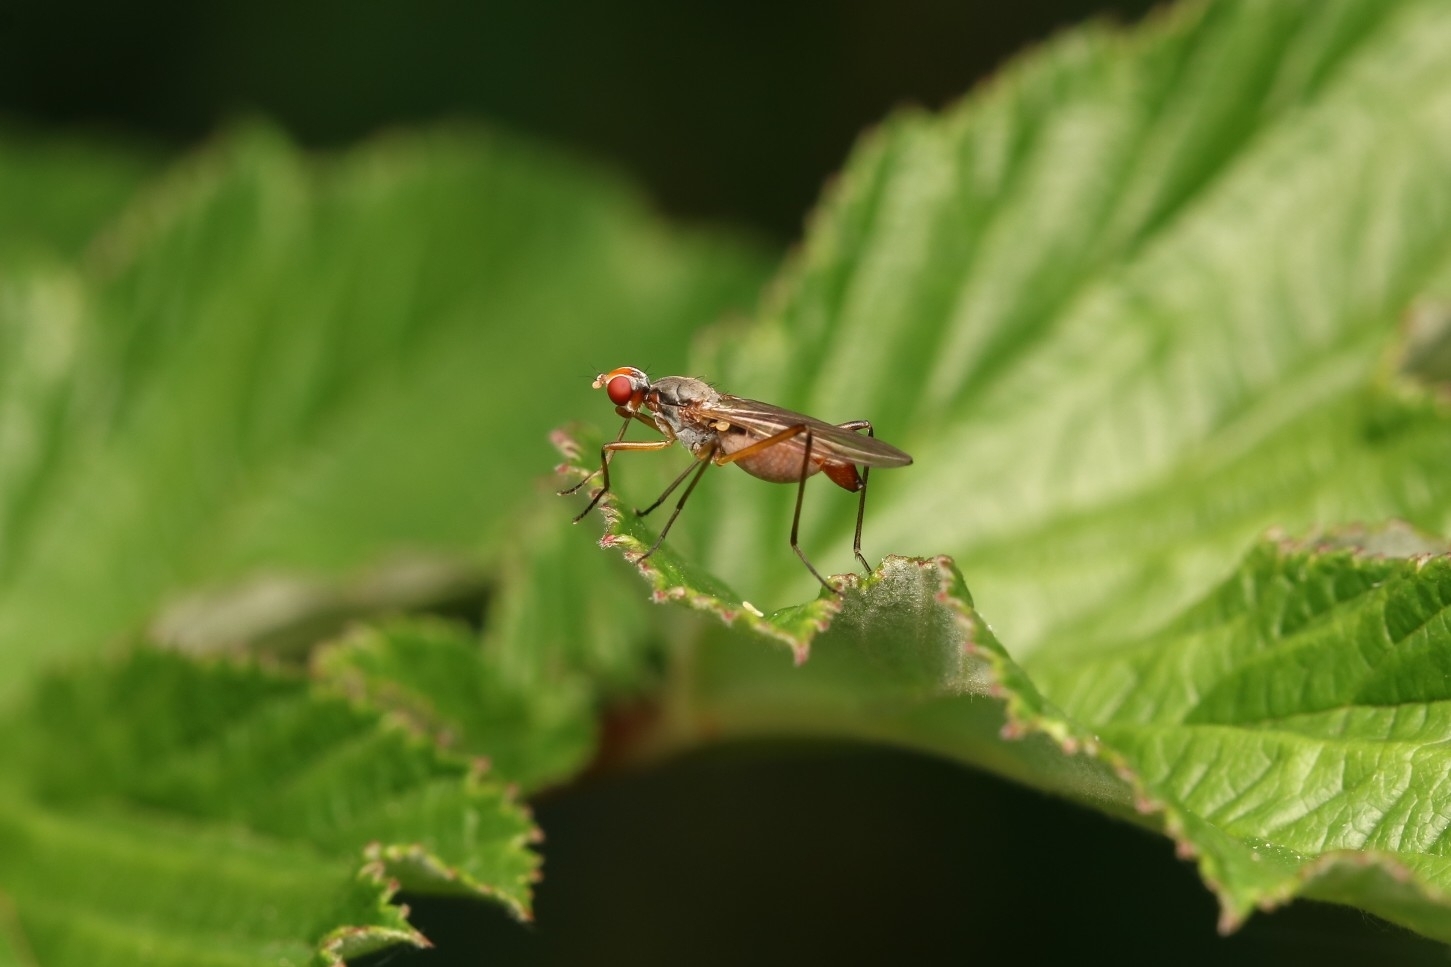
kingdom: Animalia
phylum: Arthropoda
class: Insecta
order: Diptera
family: Micropezidae
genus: Calobata
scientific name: Calobata petronella
